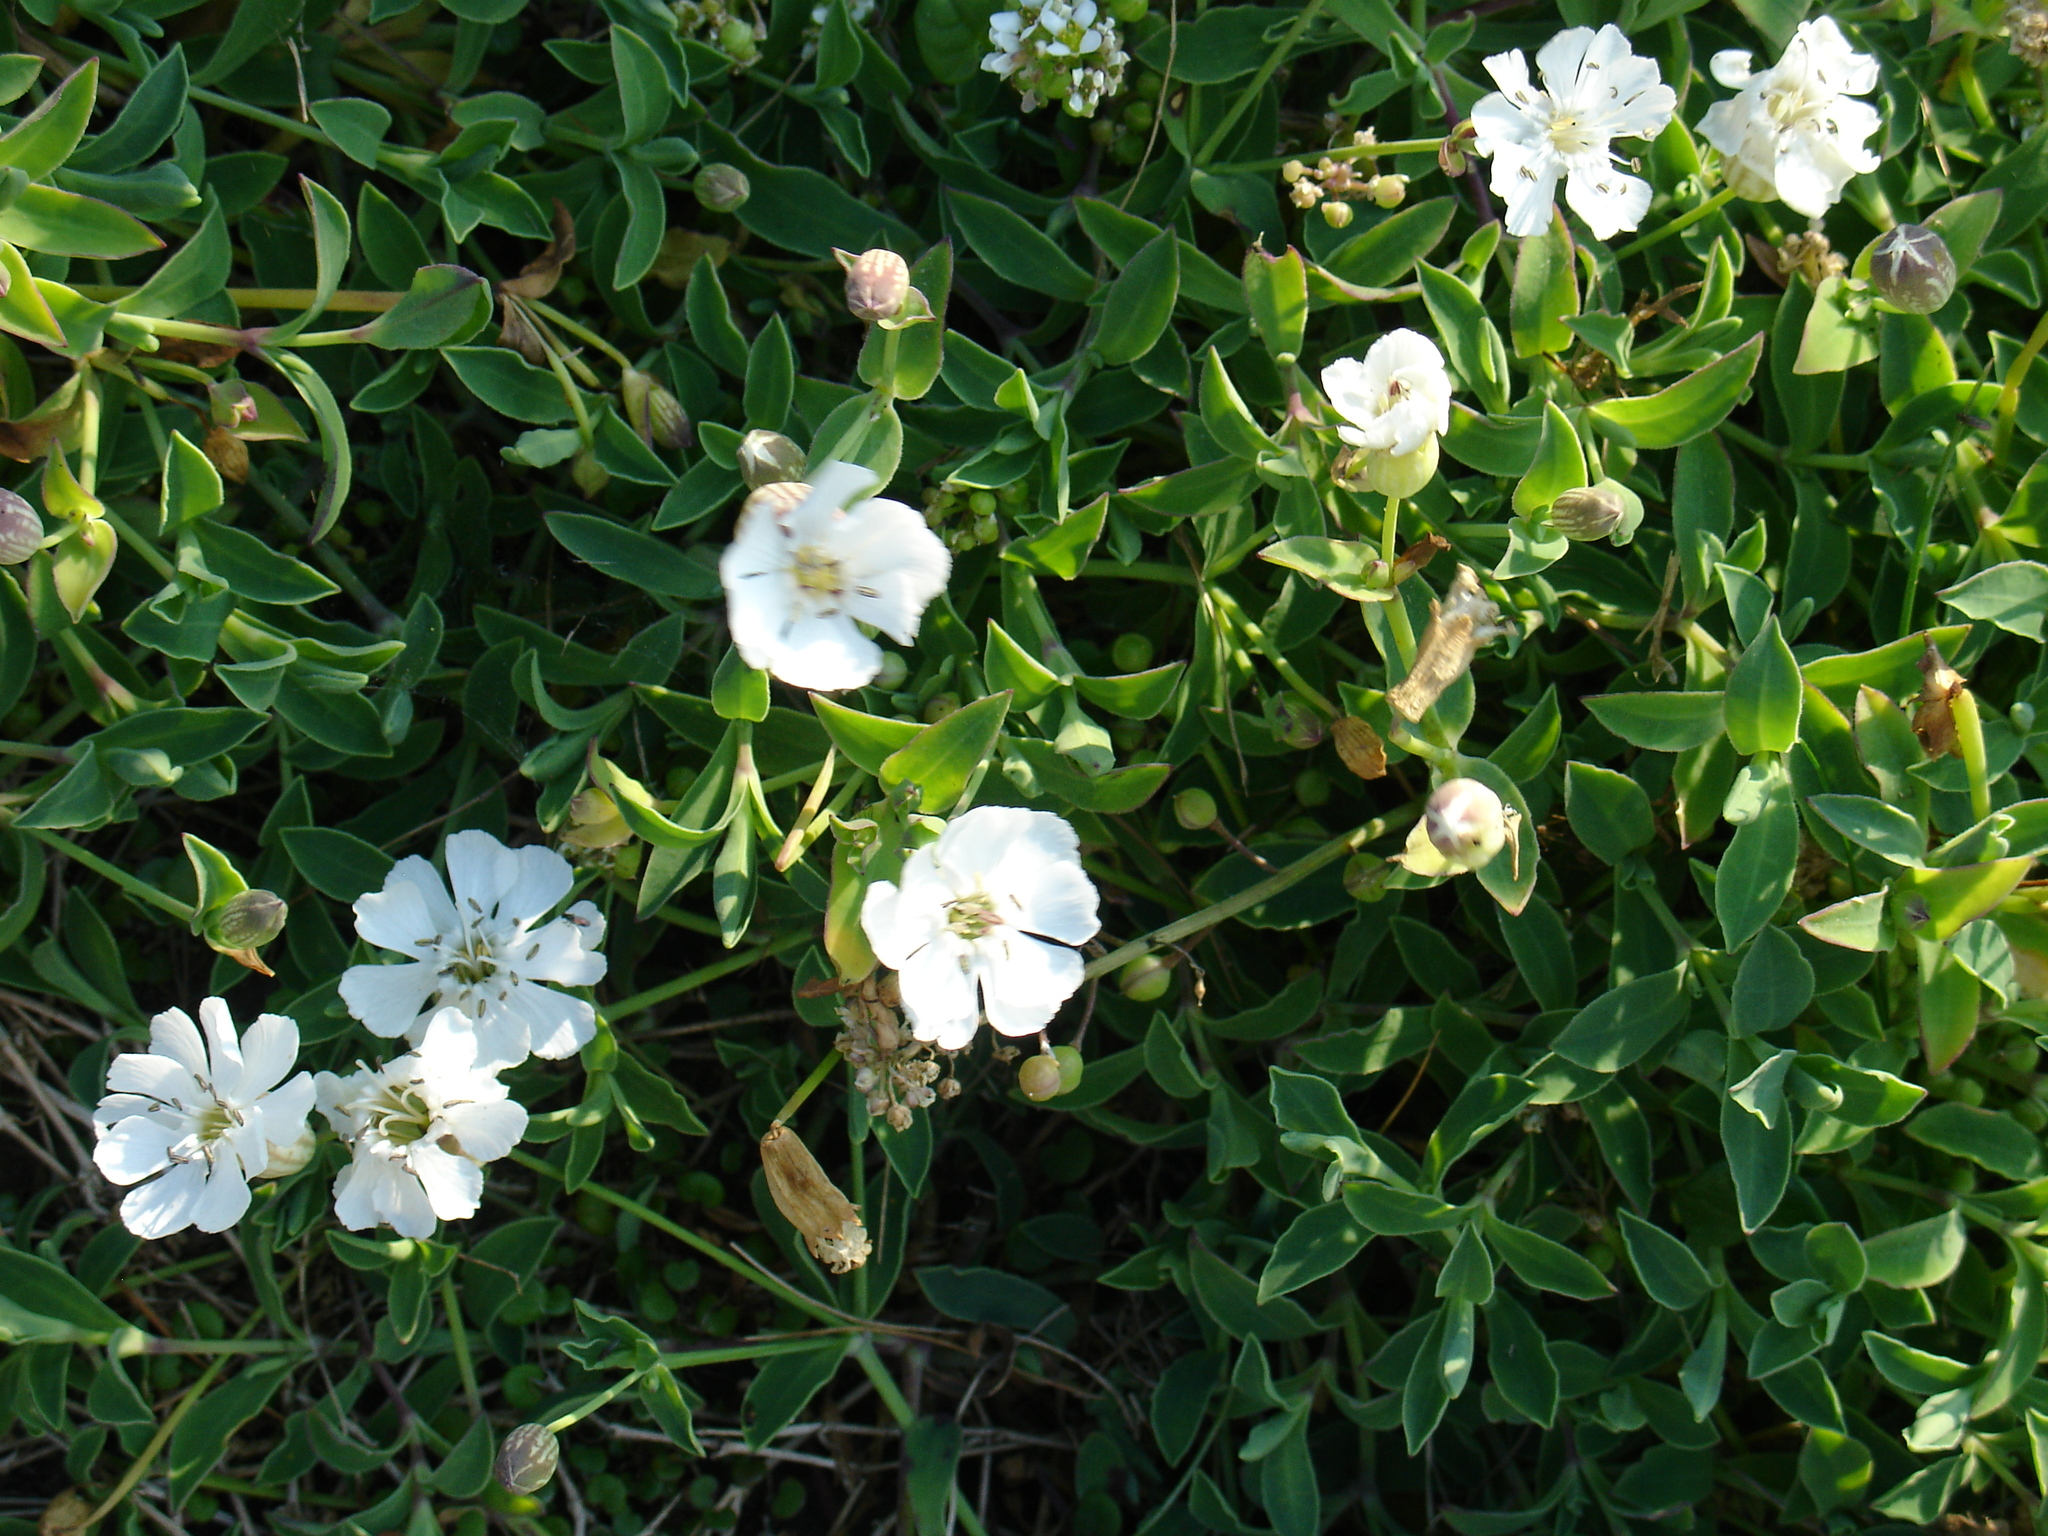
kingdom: Plantae
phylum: Tracheophyta
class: Magnoliopsida
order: Caryophyllales
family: Caryophyllaceae
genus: Silene
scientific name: Silene uniflora
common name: Sea campion
